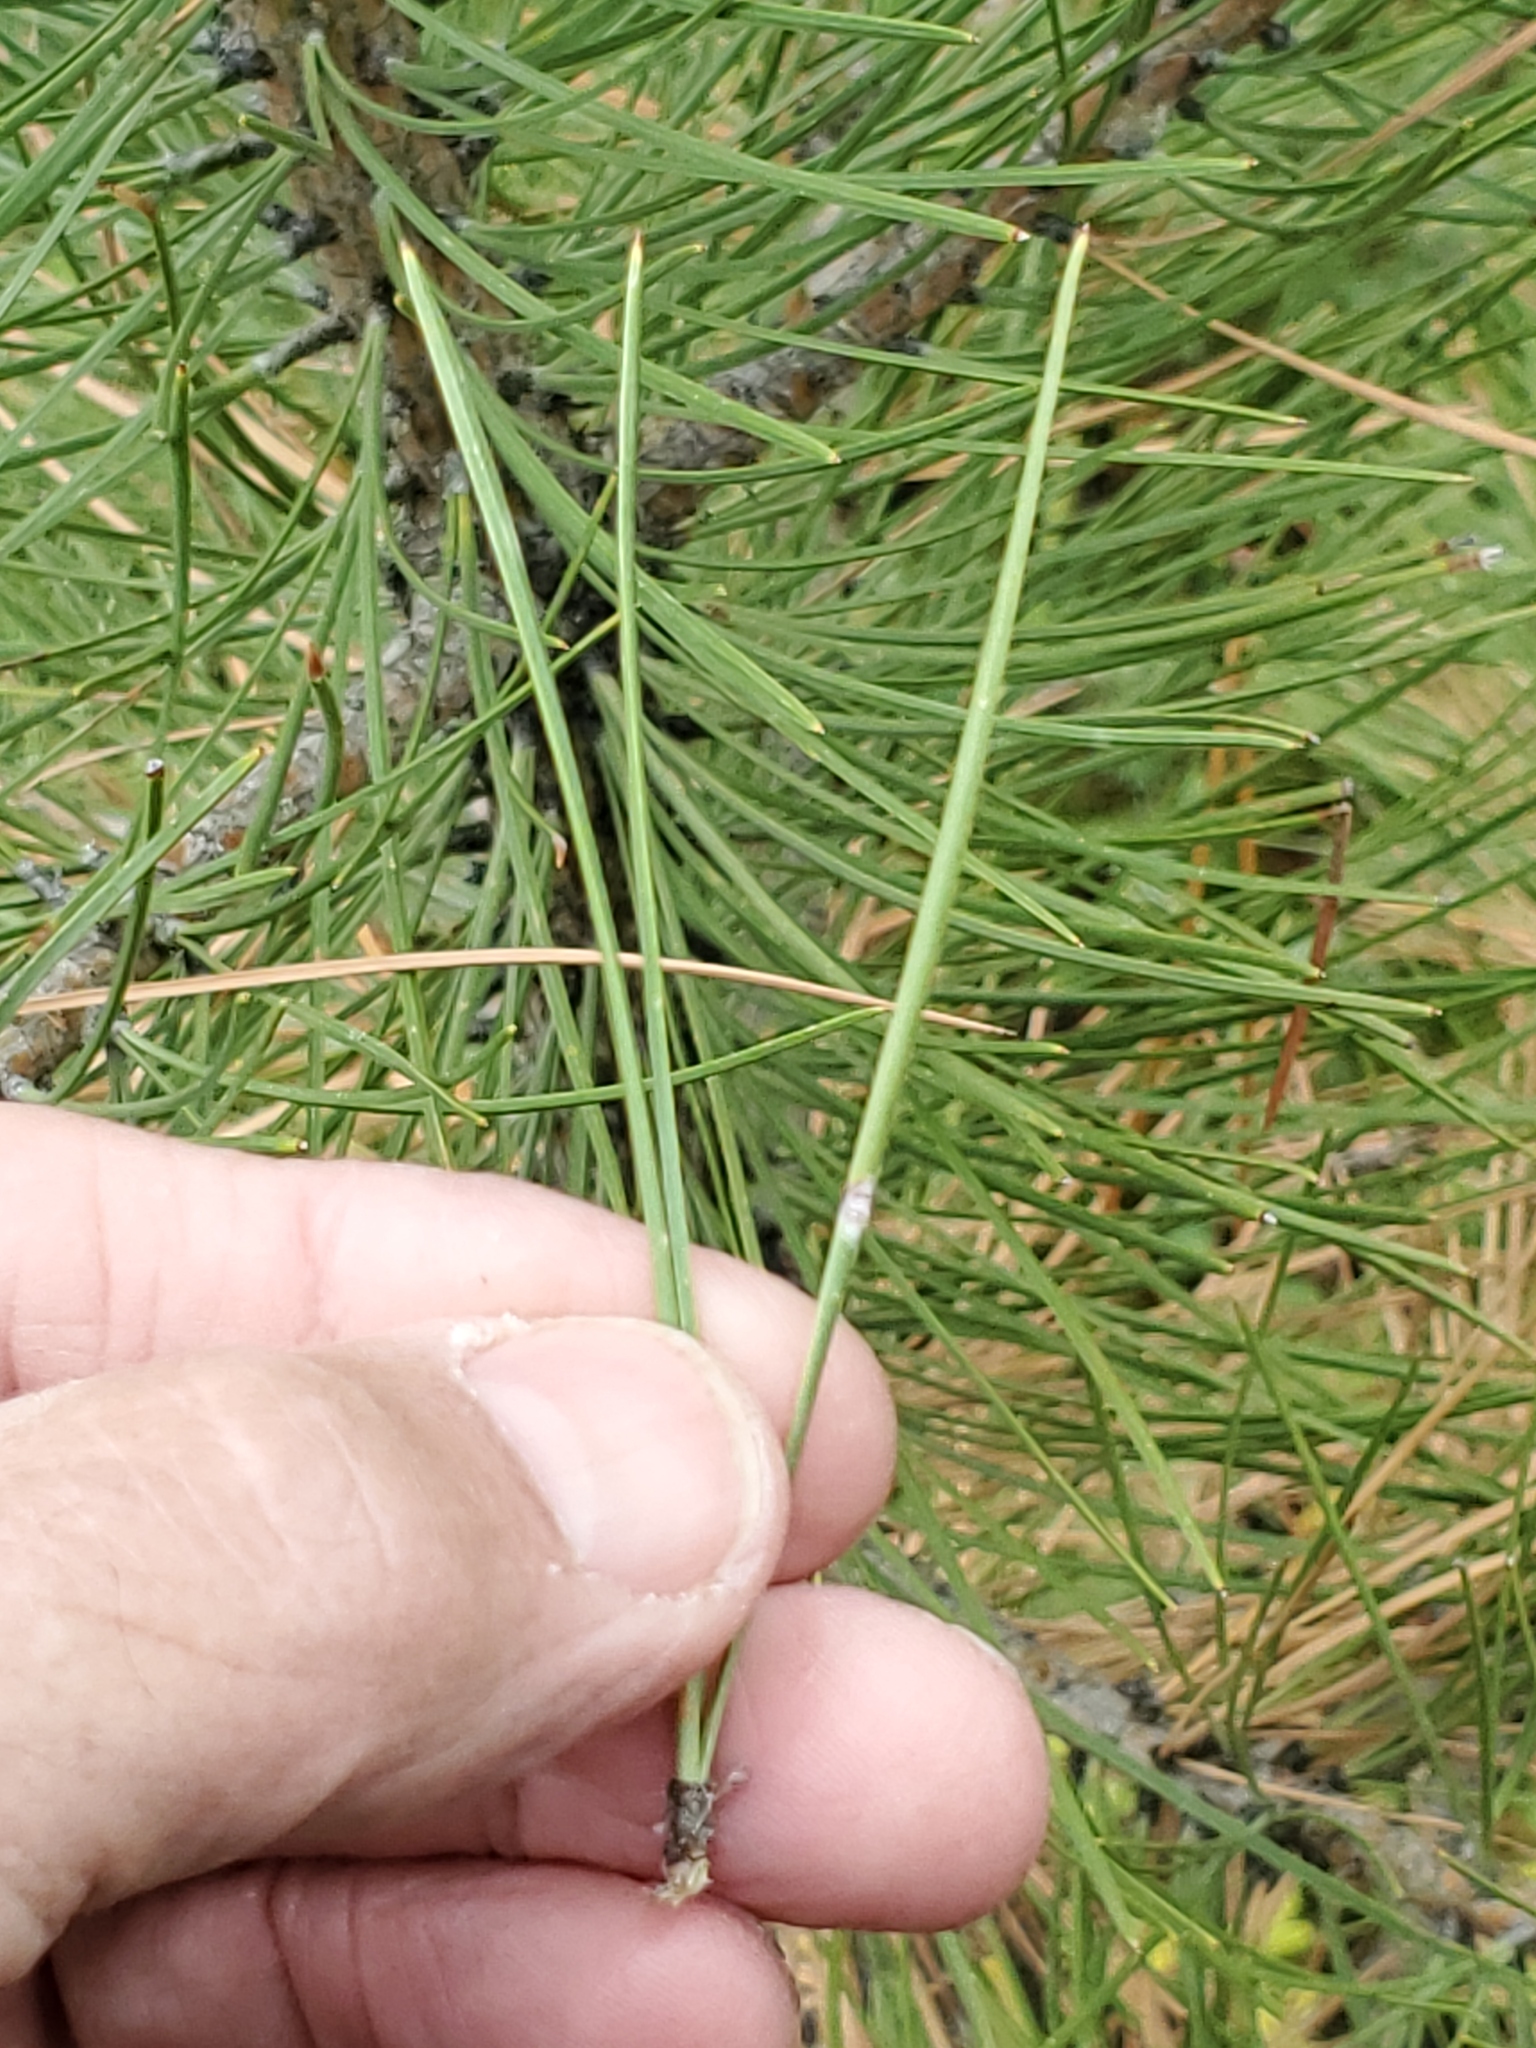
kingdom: Plantae
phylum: Tracheophyta
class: Pinopsida
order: Pinales
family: Pinaceae
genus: Pinus
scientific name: Pinus ponderosa
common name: Western yellow-pine
